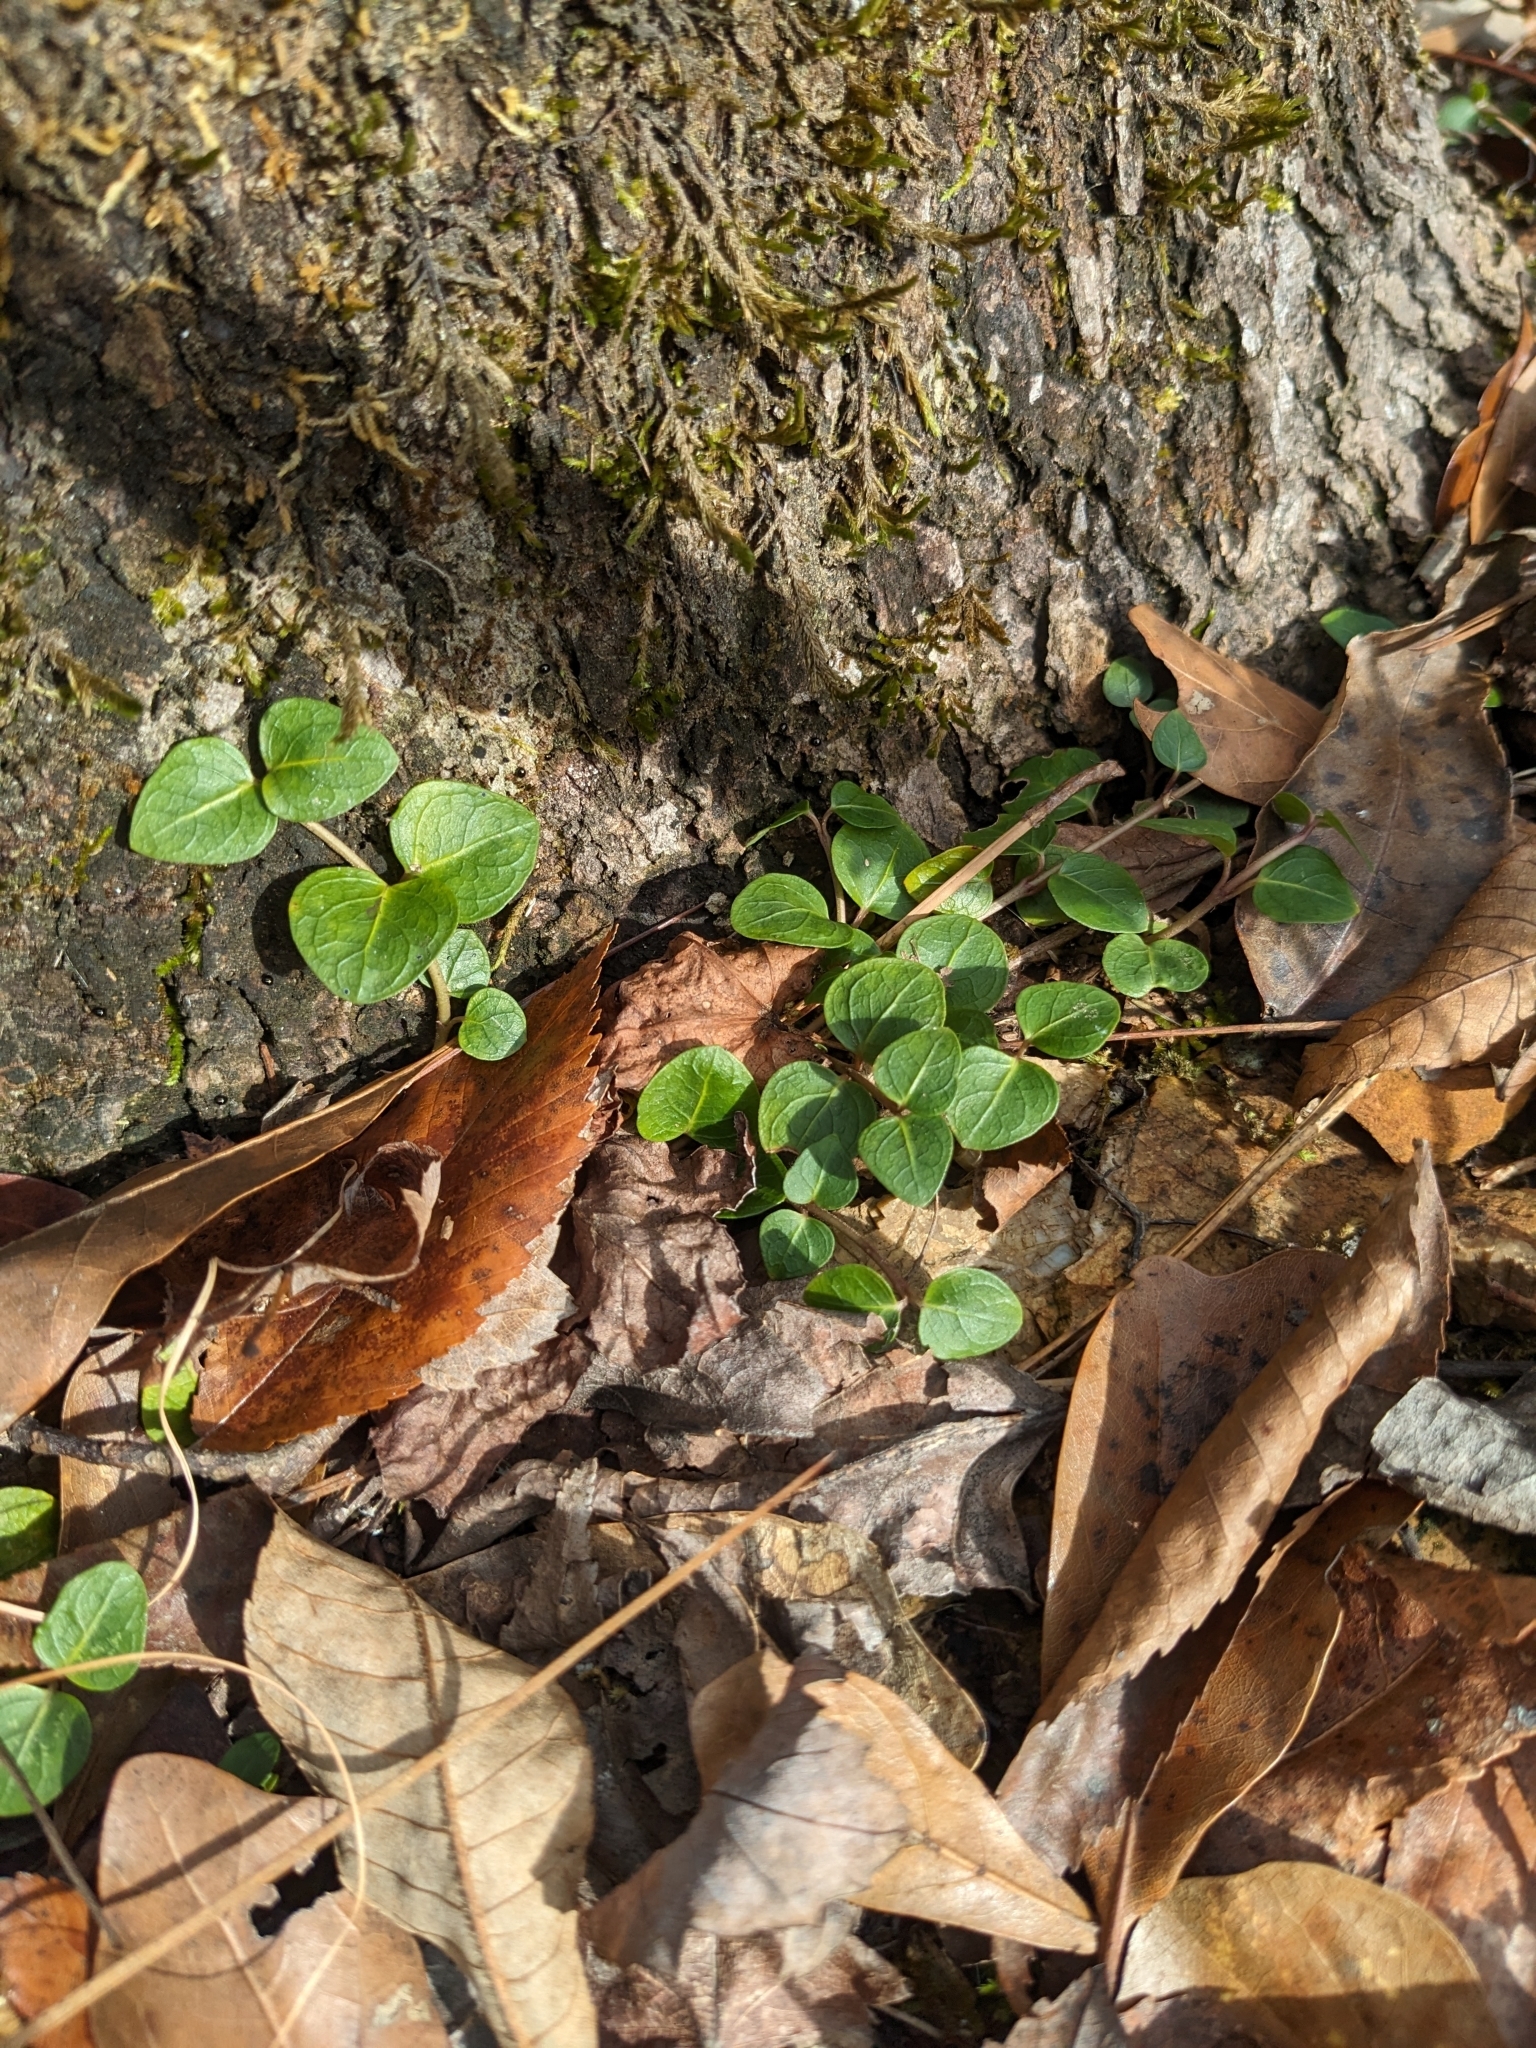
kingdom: Plantae
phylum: Tracheophyta
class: Magnoliopsida
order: Gentianales
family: Rubiaceae
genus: Mitchella
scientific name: Mitchella repens
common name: Partridge-berry
